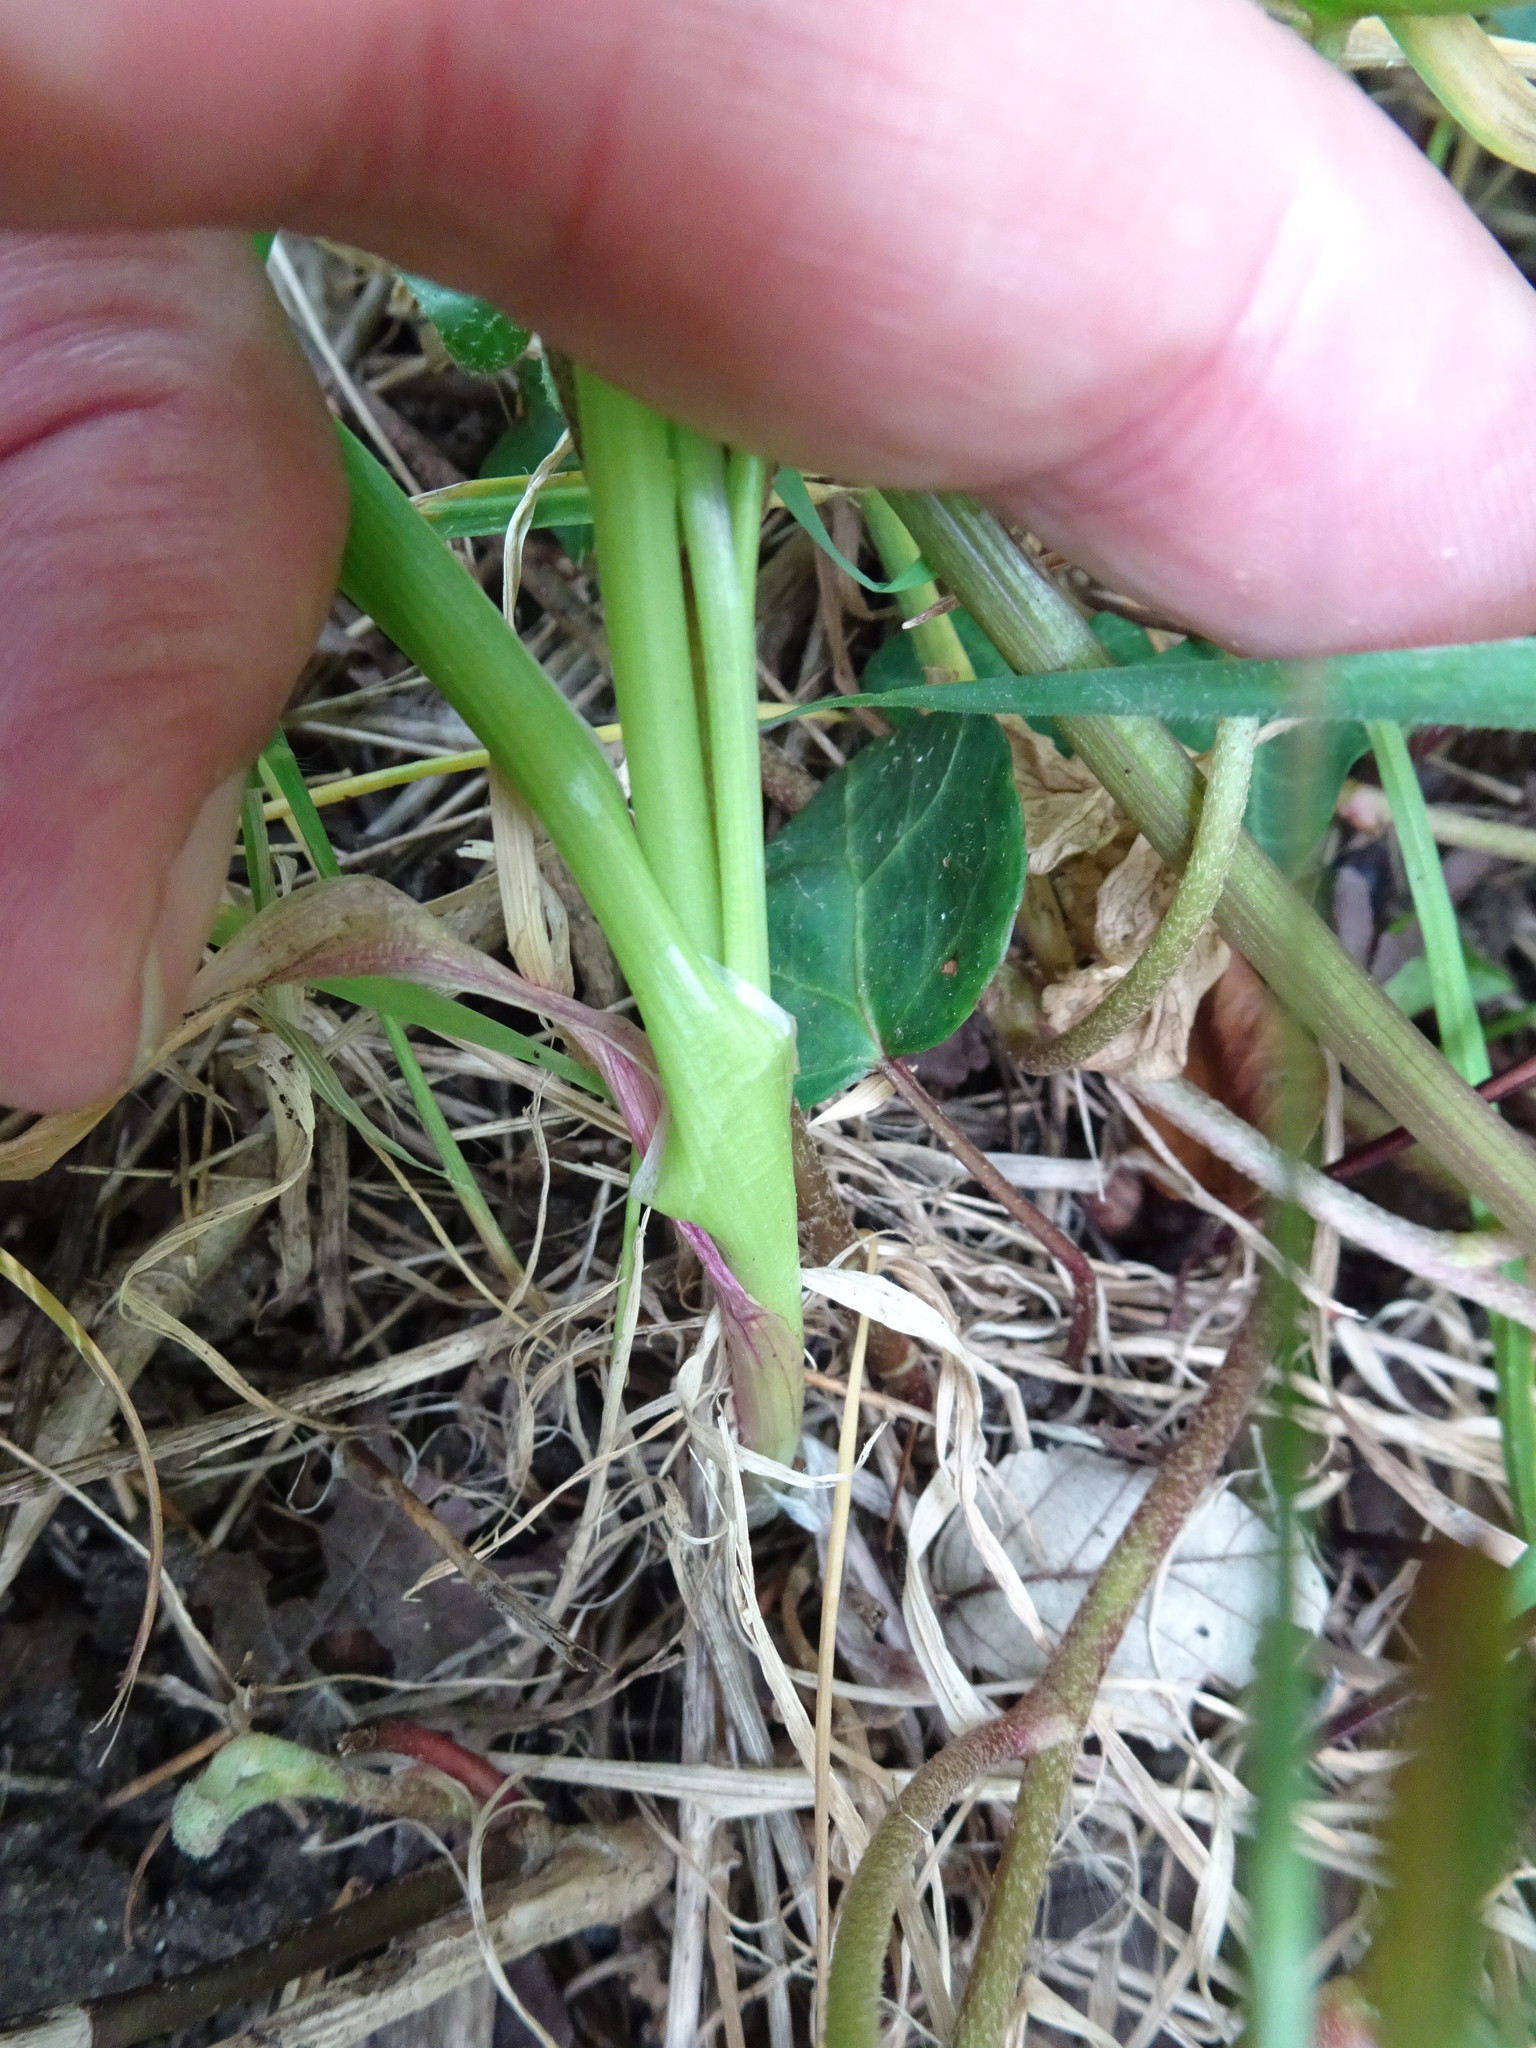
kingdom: Plantae
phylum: Tracheophyta
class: Liliopsida
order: Asparagales
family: Amaryllidaceae
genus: Allium
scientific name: Allium roseum
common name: Rosy garlic
